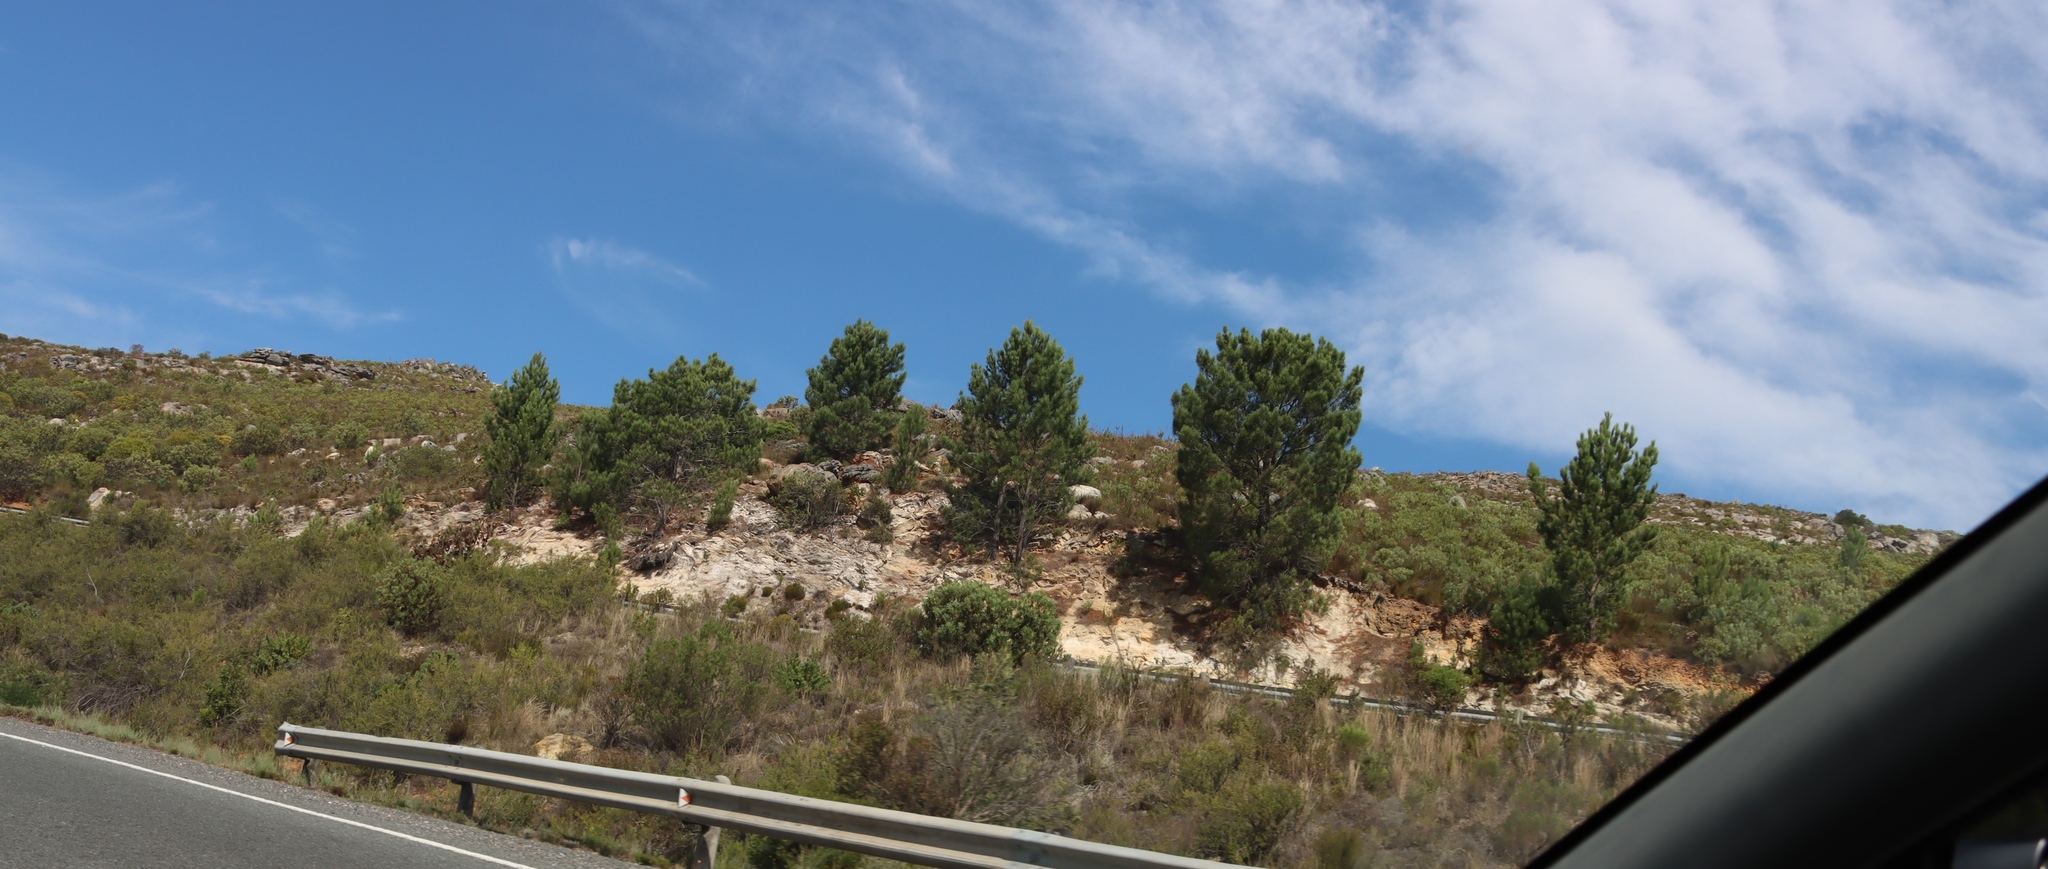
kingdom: Plantae
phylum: Tracheophyta
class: Pinopsida
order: Pinales
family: Pinaceae
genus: Pinus
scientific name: Pinus pinaster
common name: Maritime pine
